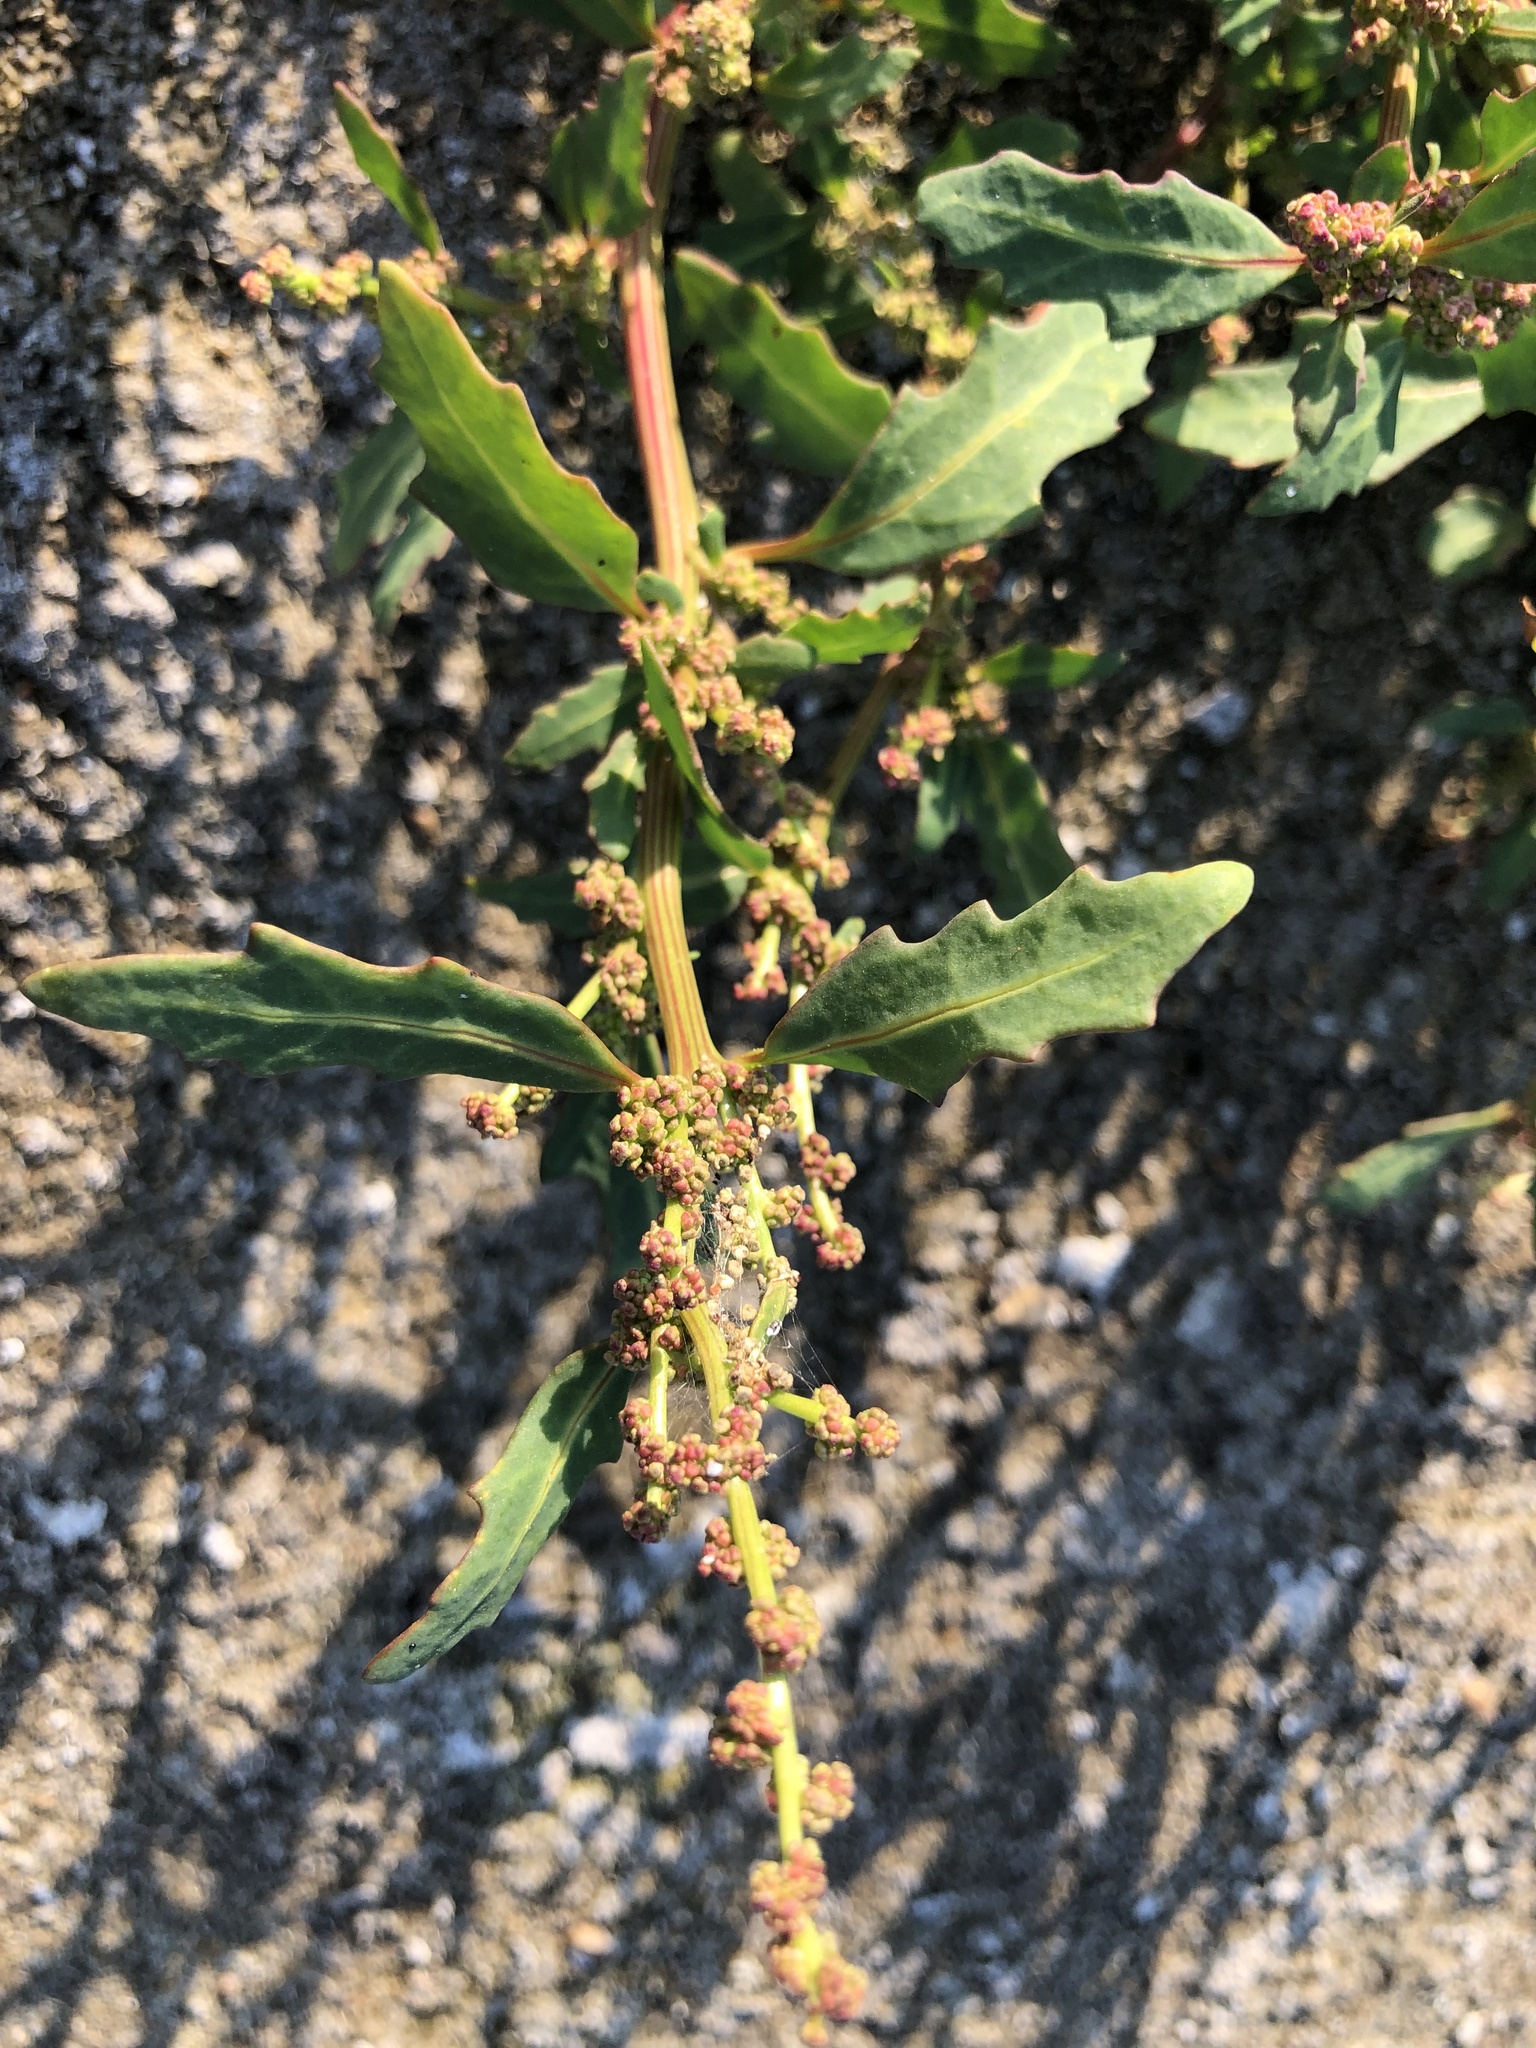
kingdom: Plantae
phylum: Tracheophyta
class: Magnoliopsida
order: Caryophyllales
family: Amaranthaceae
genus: Oxybasis
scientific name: Oxybasis glauca
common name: Glaucous goosefoot
